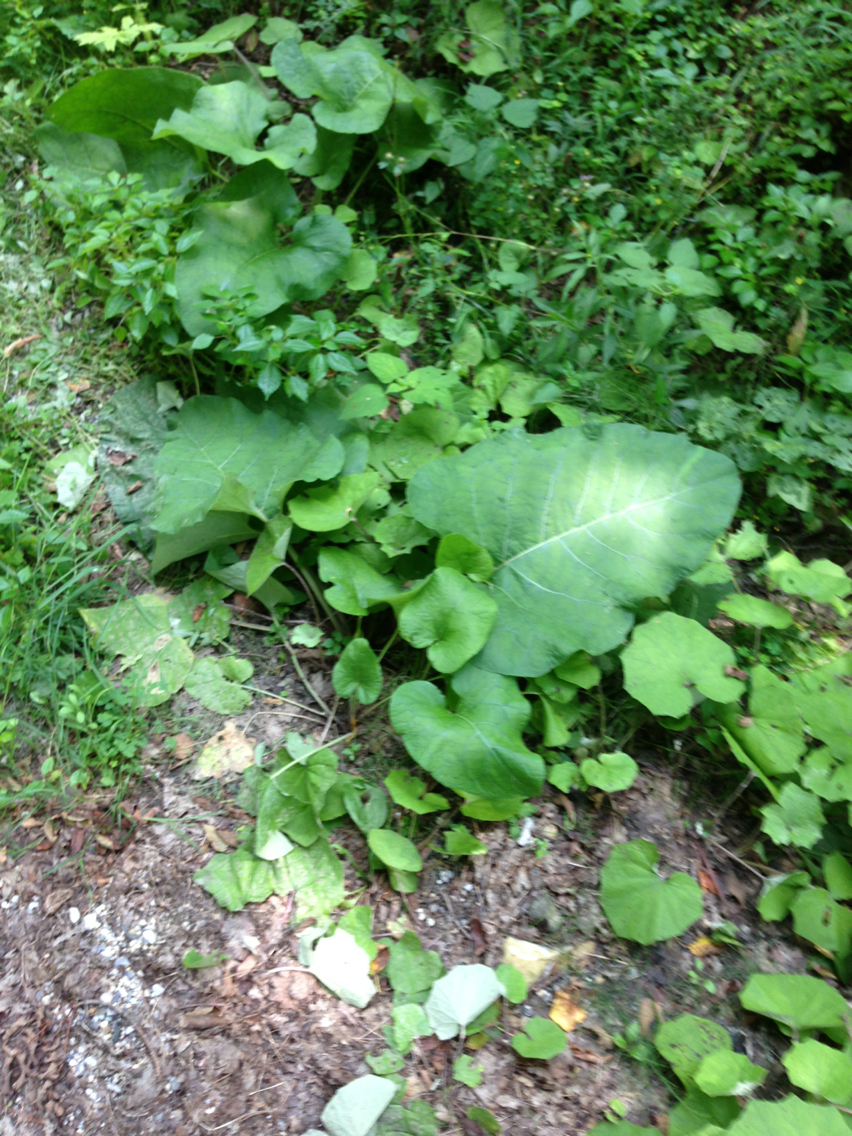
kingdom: Plantae
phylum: Tracheophyta
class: Magnoliopsida
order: Asterales
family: Asteraceae
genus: Arctium
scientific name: Arctium
